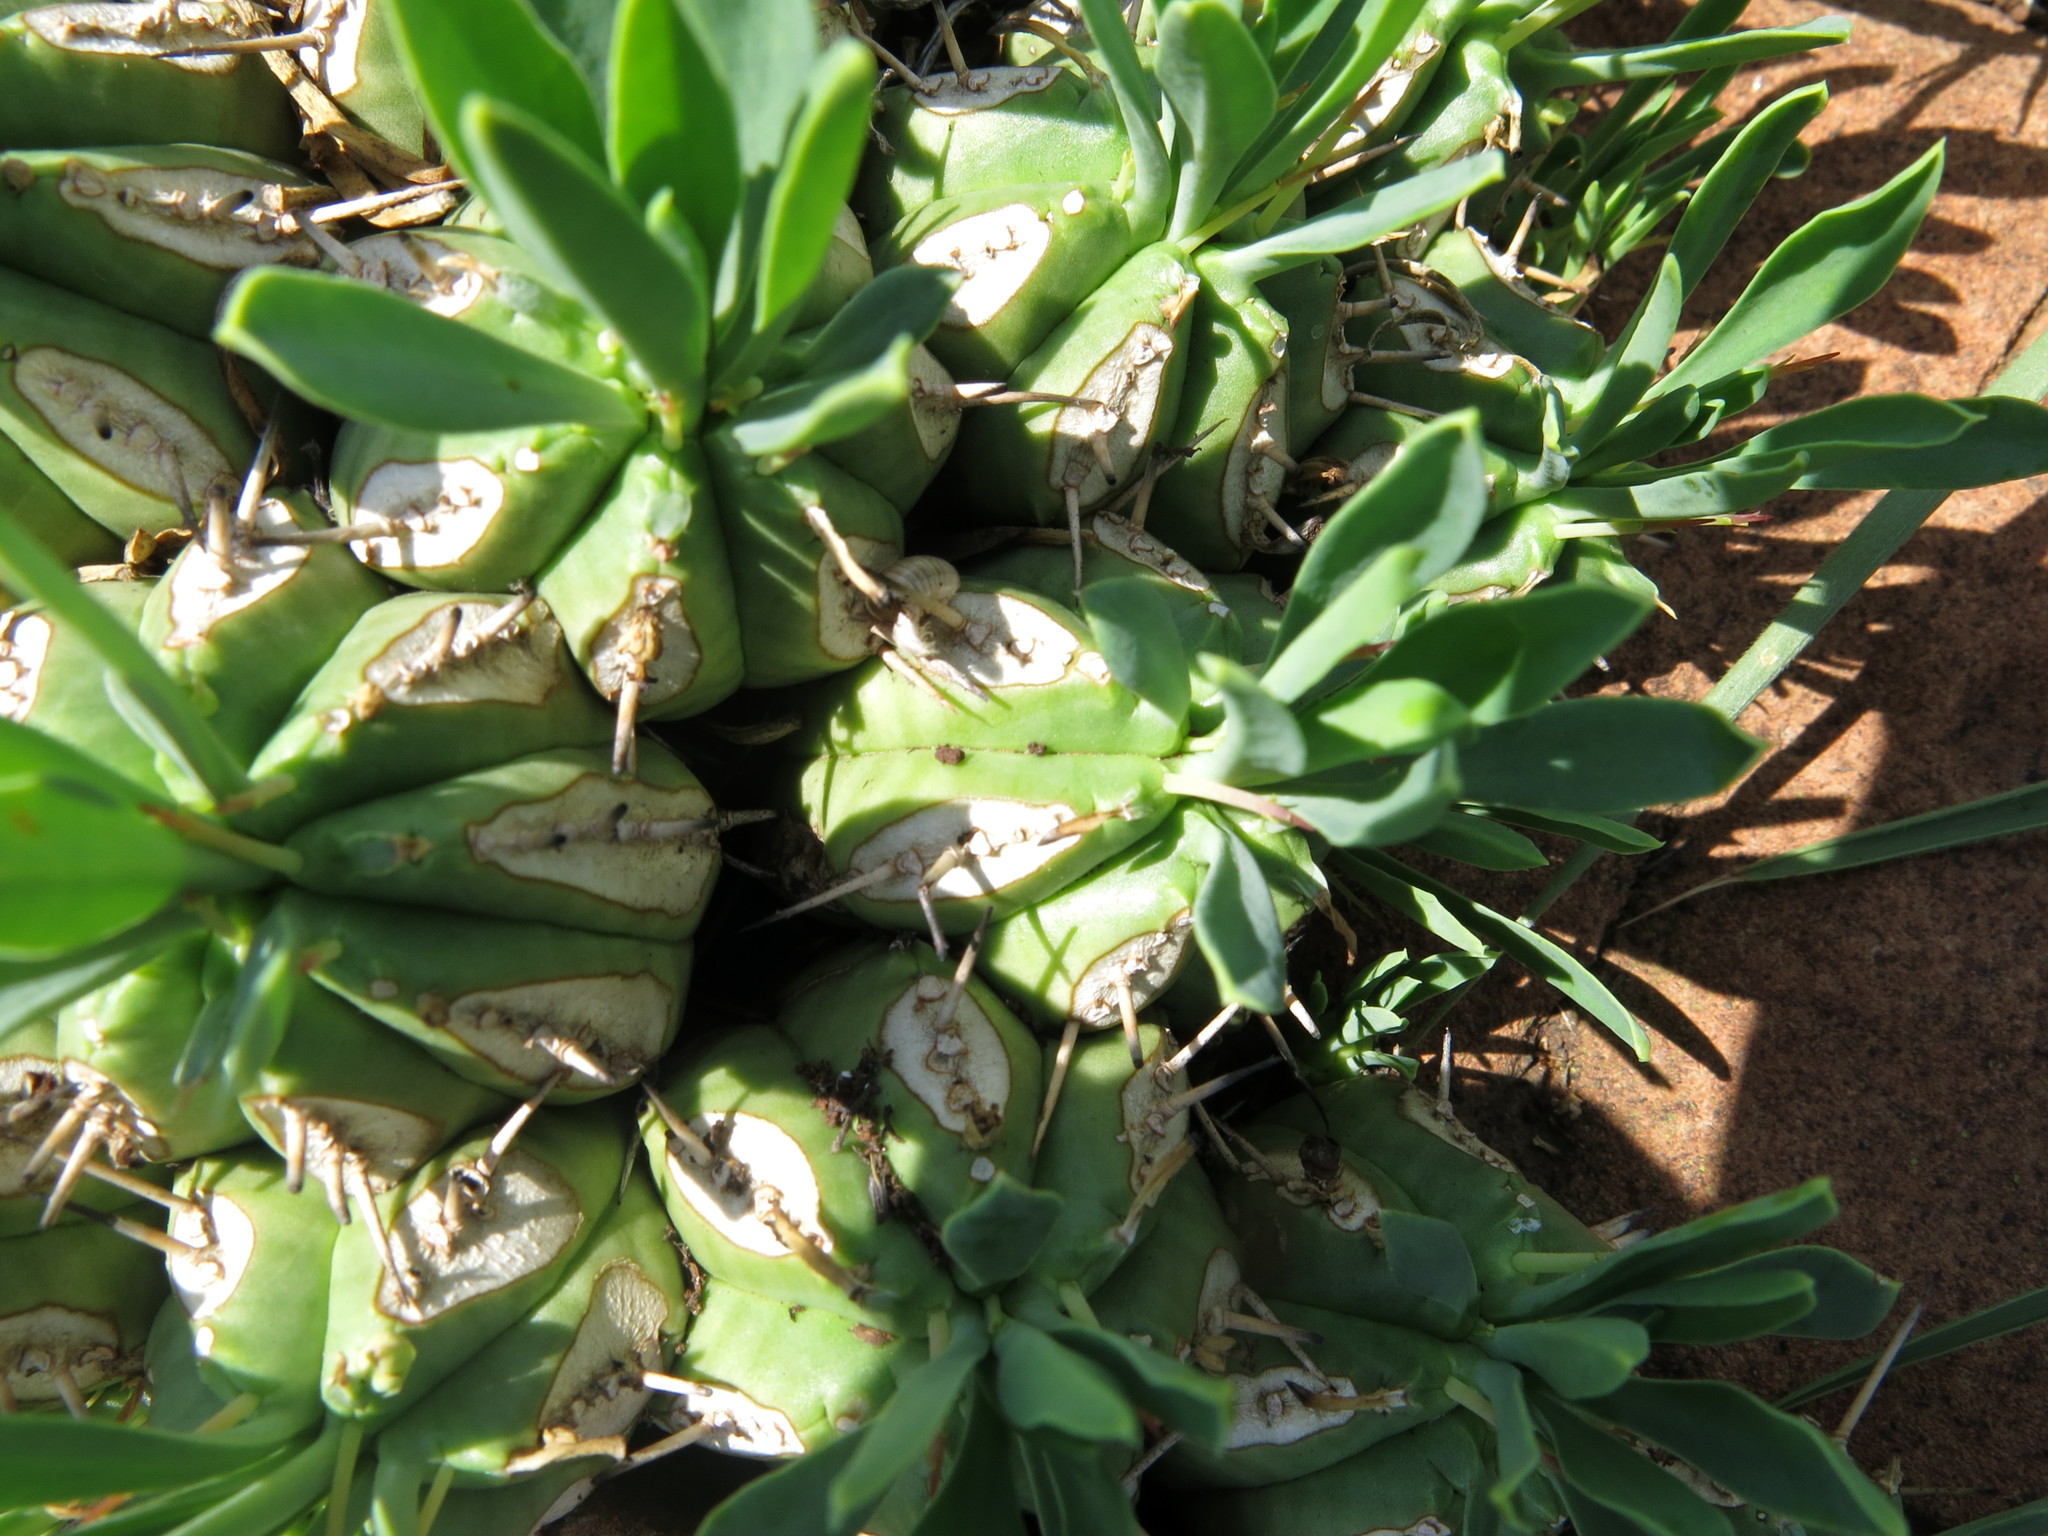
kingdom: Plantae
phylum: Tracheophyta
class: Magnoliopsida
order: Malpighiales
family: Euphorbiaceae
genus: Euphorbia
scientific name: Euphorbia pulvinata
